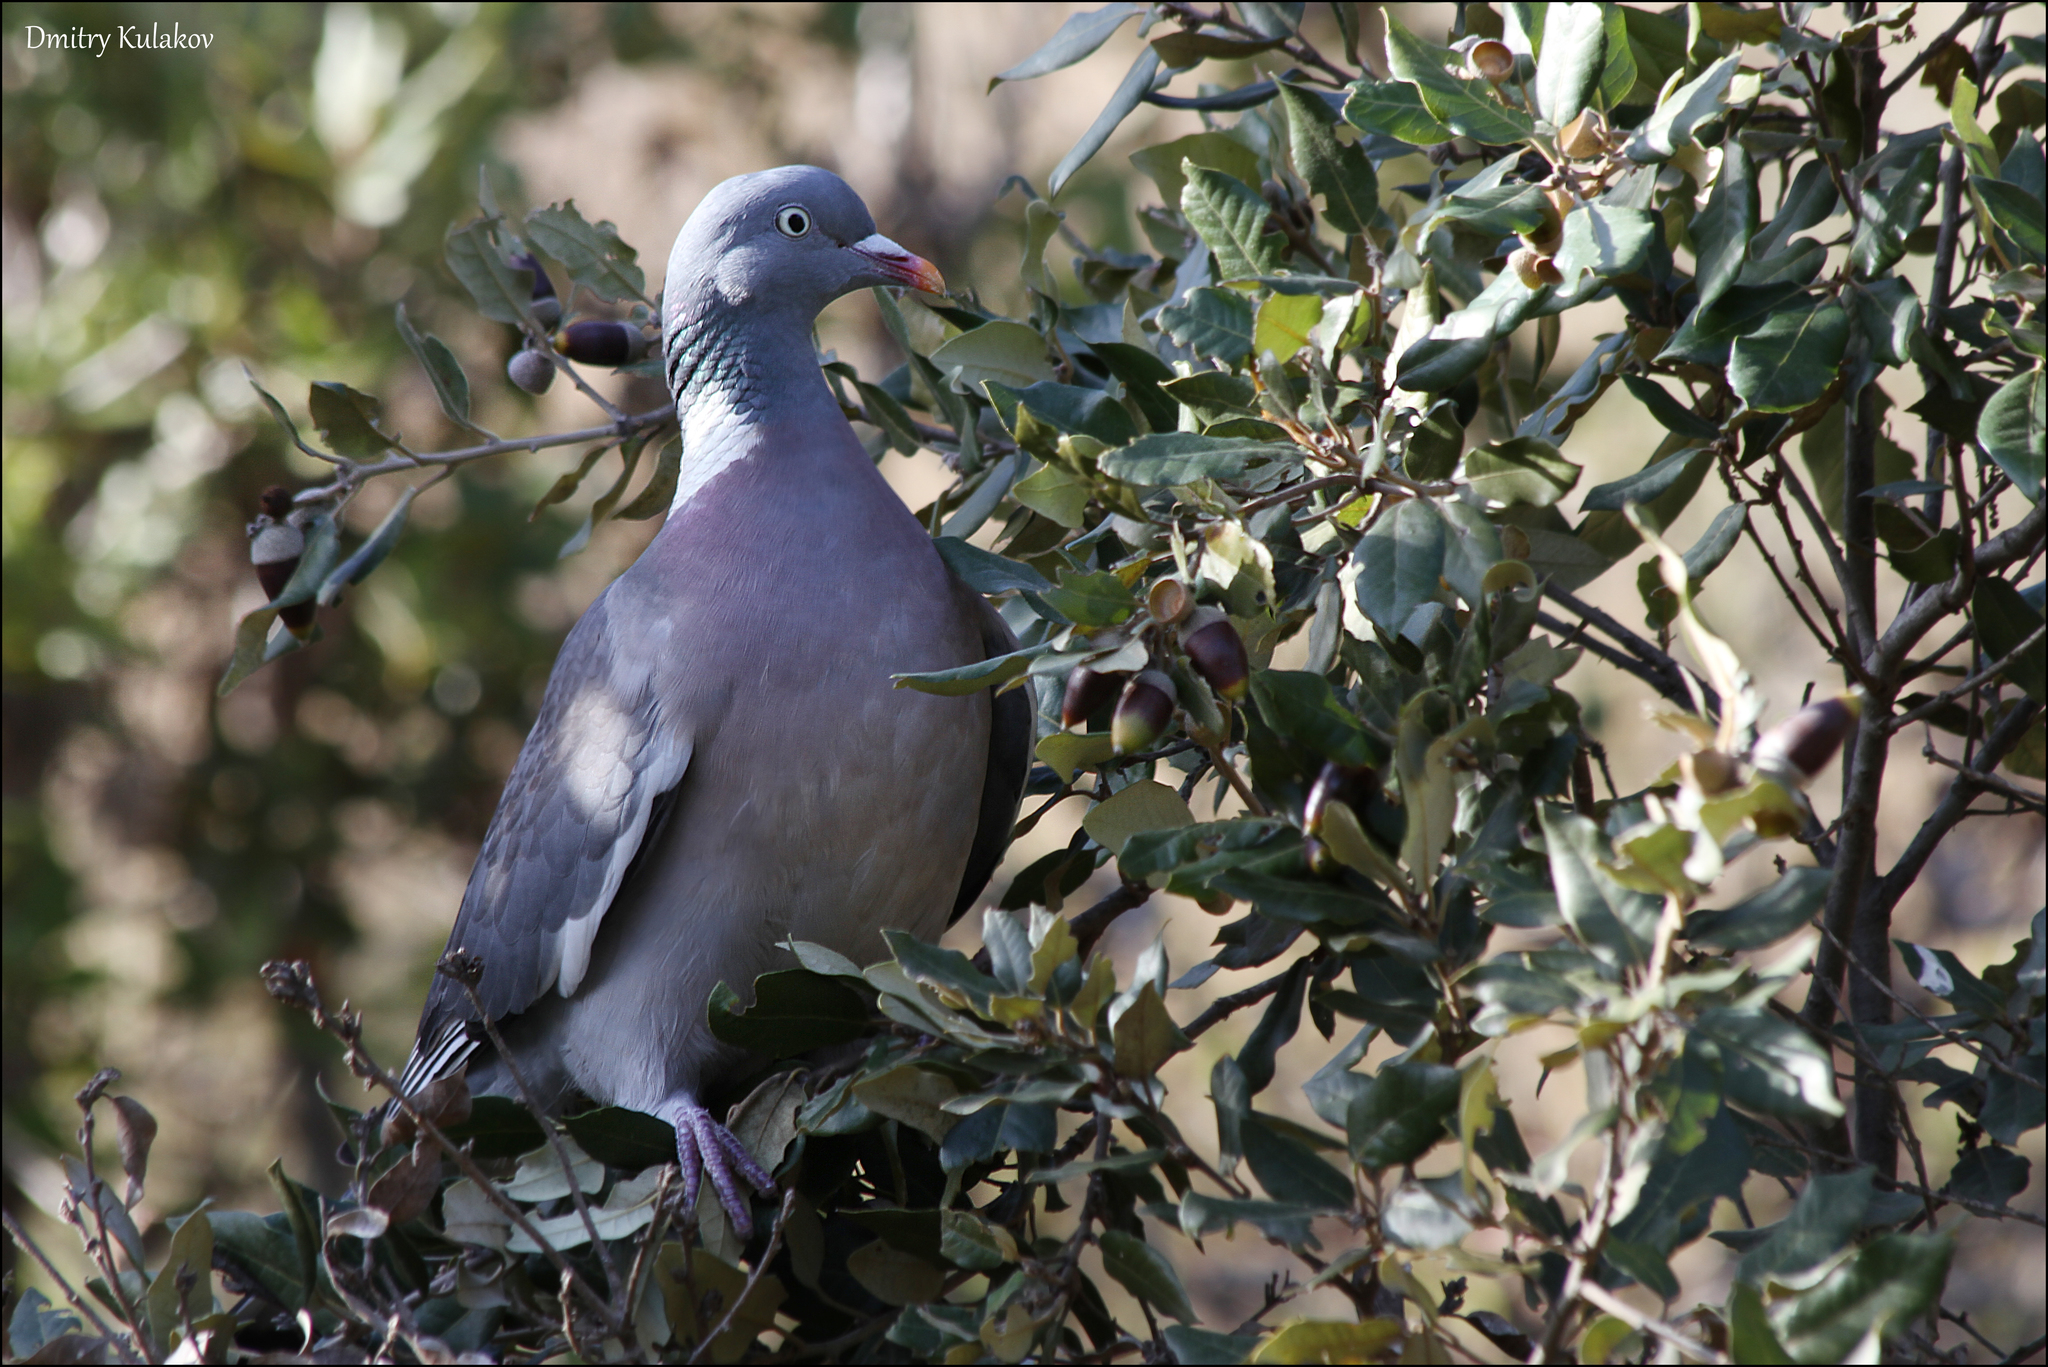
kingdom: Animalia
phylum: Chordata
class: Aves
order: Columbiformes
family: Columbidae
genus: Columba
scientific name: Columba palumbus
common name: Common wood pigeon
